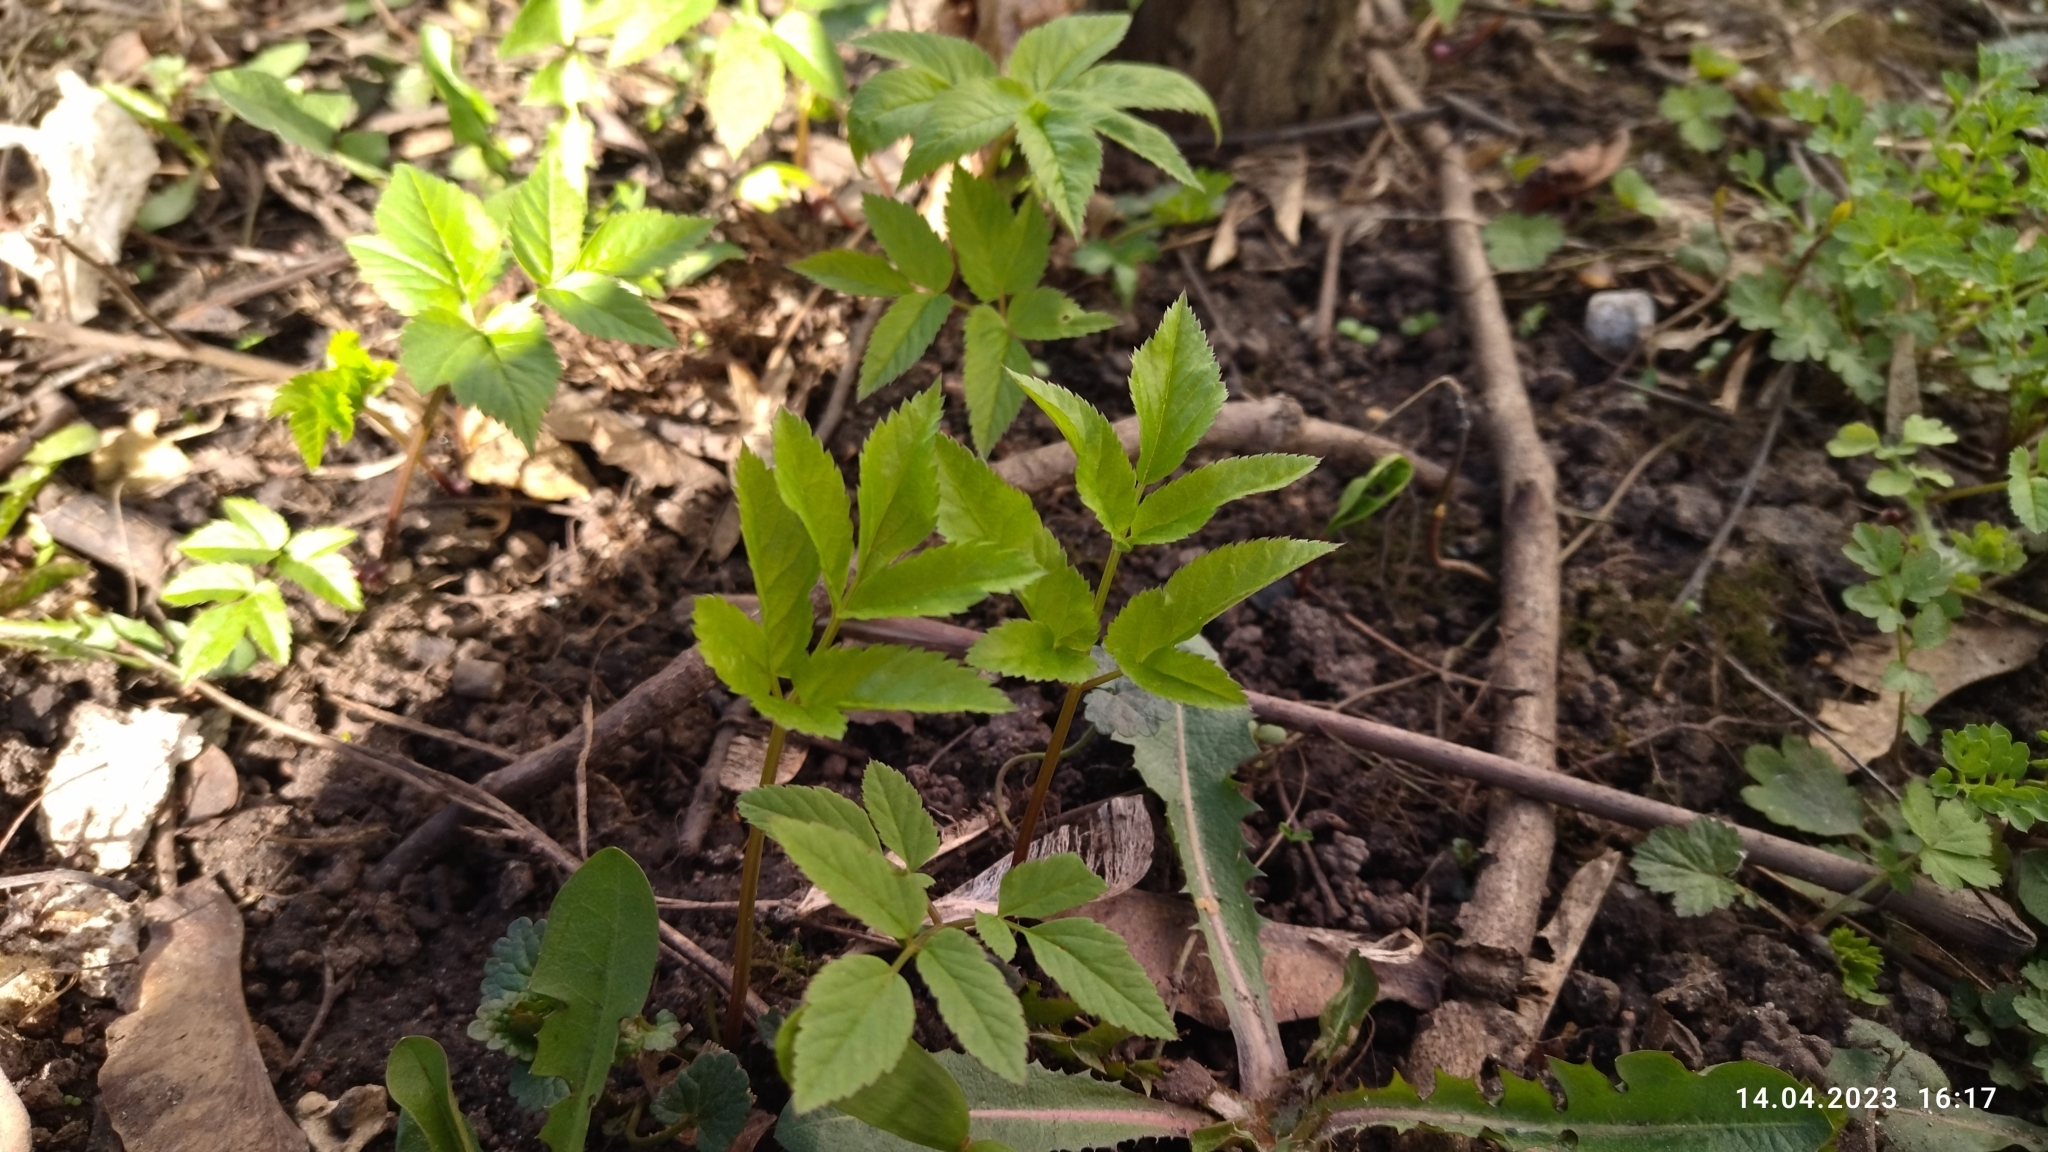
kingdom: Plantae
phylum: Tracheophyta
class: Magnoliopsida
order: Apiales
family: Apiaceae
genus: Aegopodium
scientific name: Aegopodium podagraria
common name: Ground-elder
